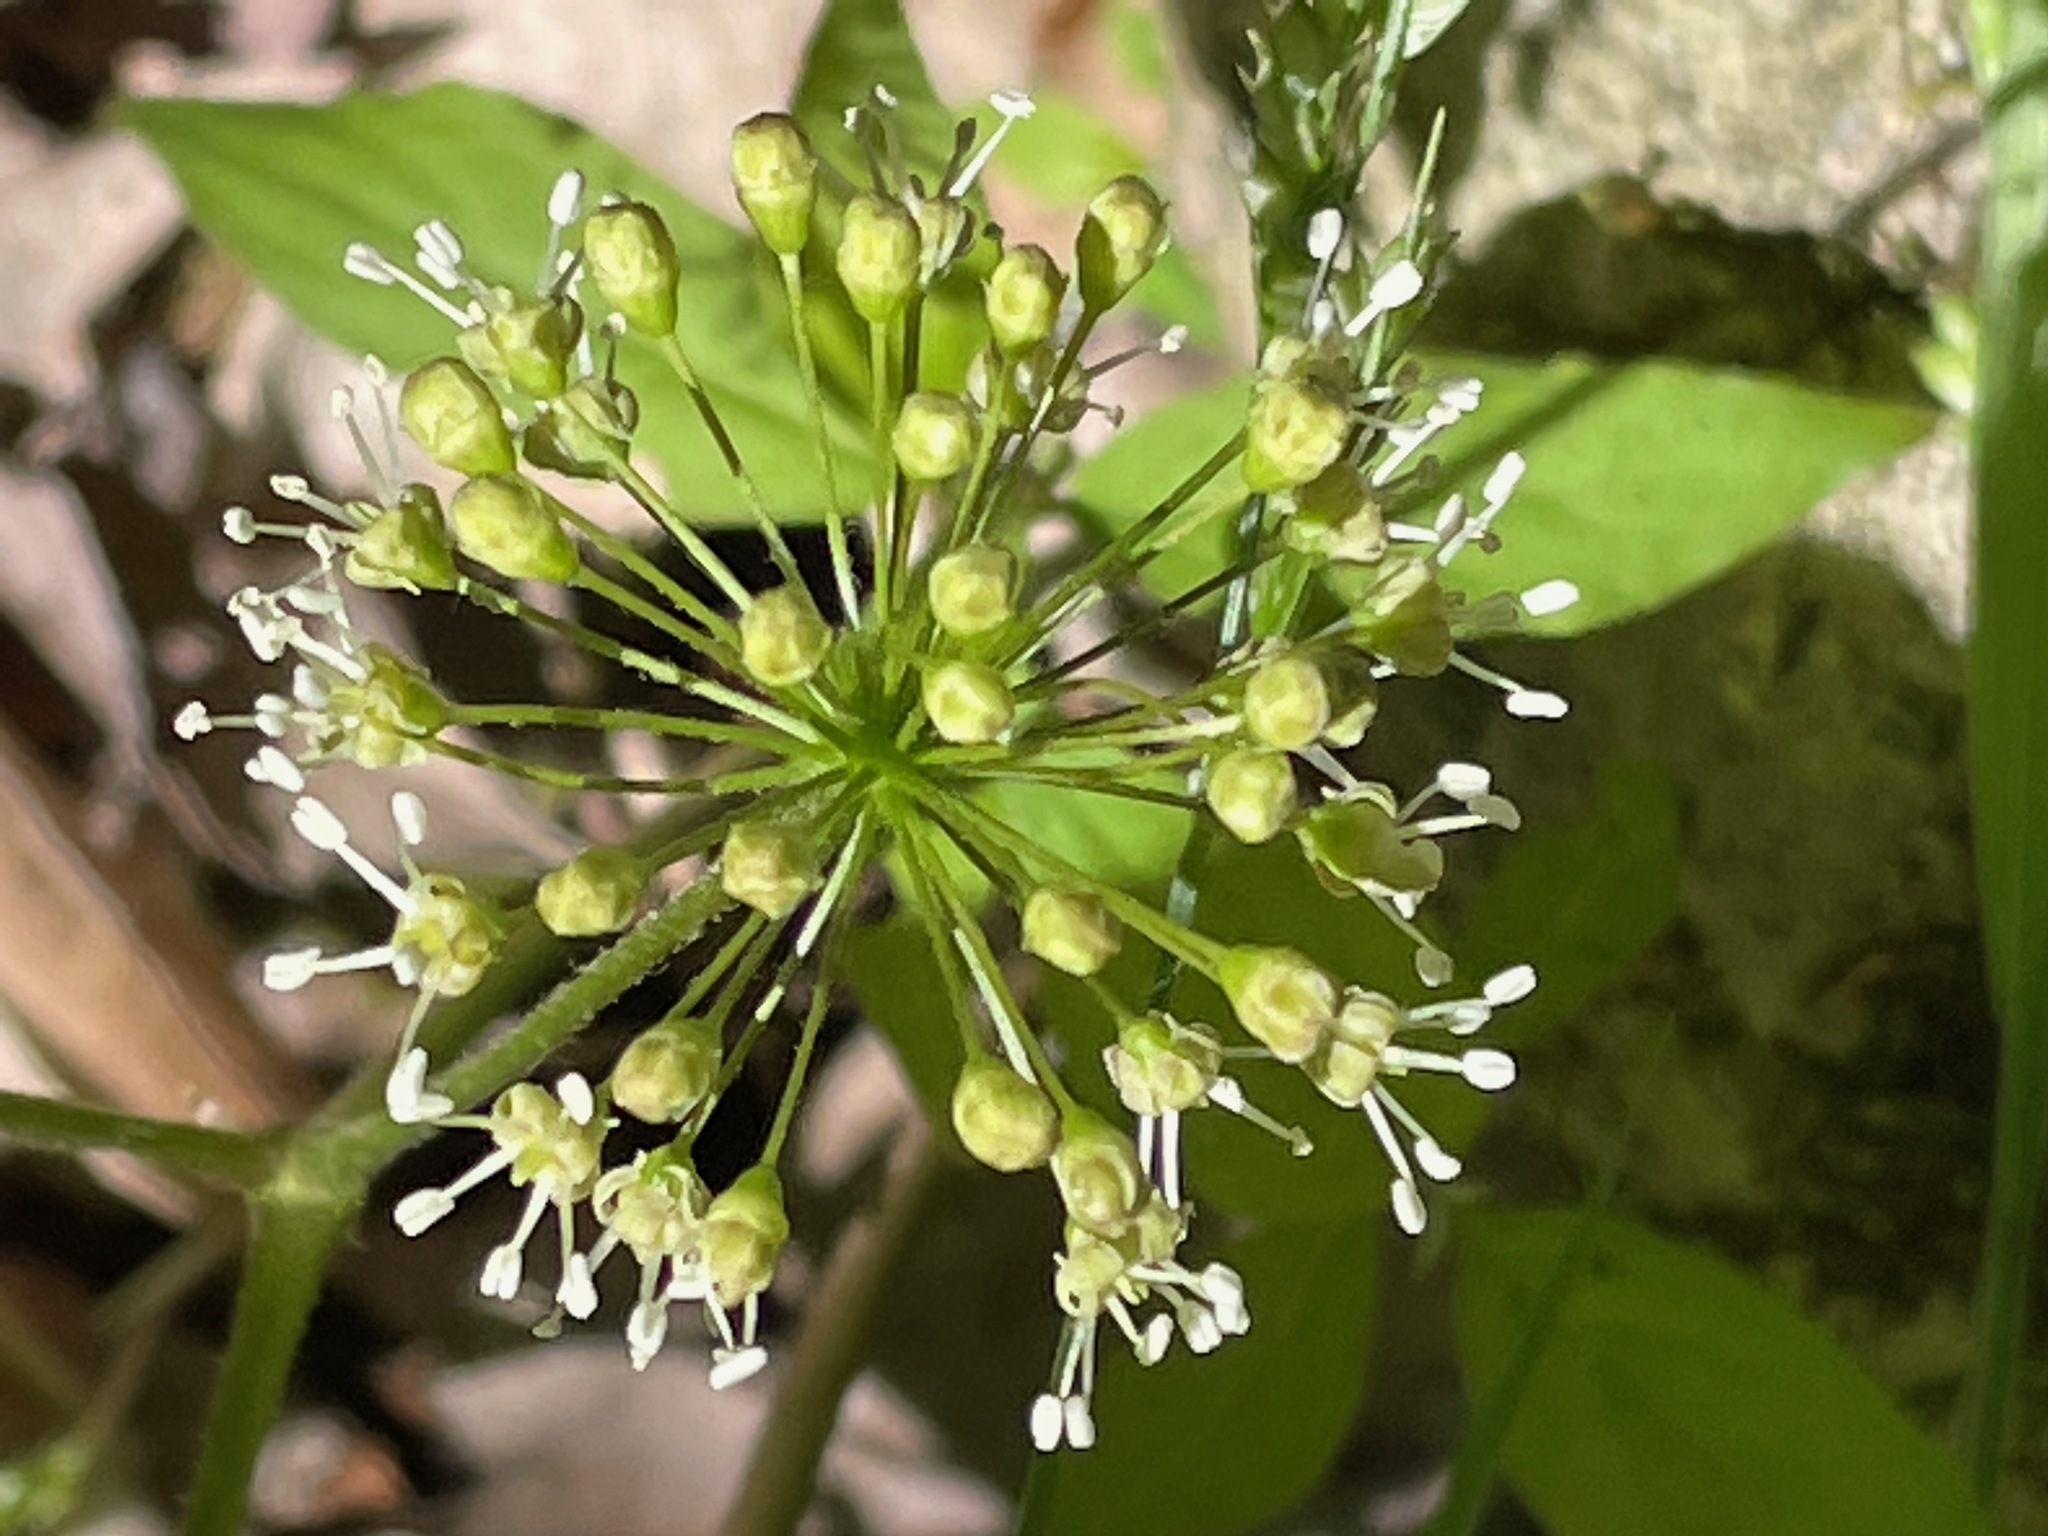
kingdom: Plantae
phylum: Tracheophyta
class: Magnoliopsida
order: Apiales
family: Araliaceae
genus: Aralia
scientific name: Aralia nudicaulis
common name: Wild sarsaparilla
